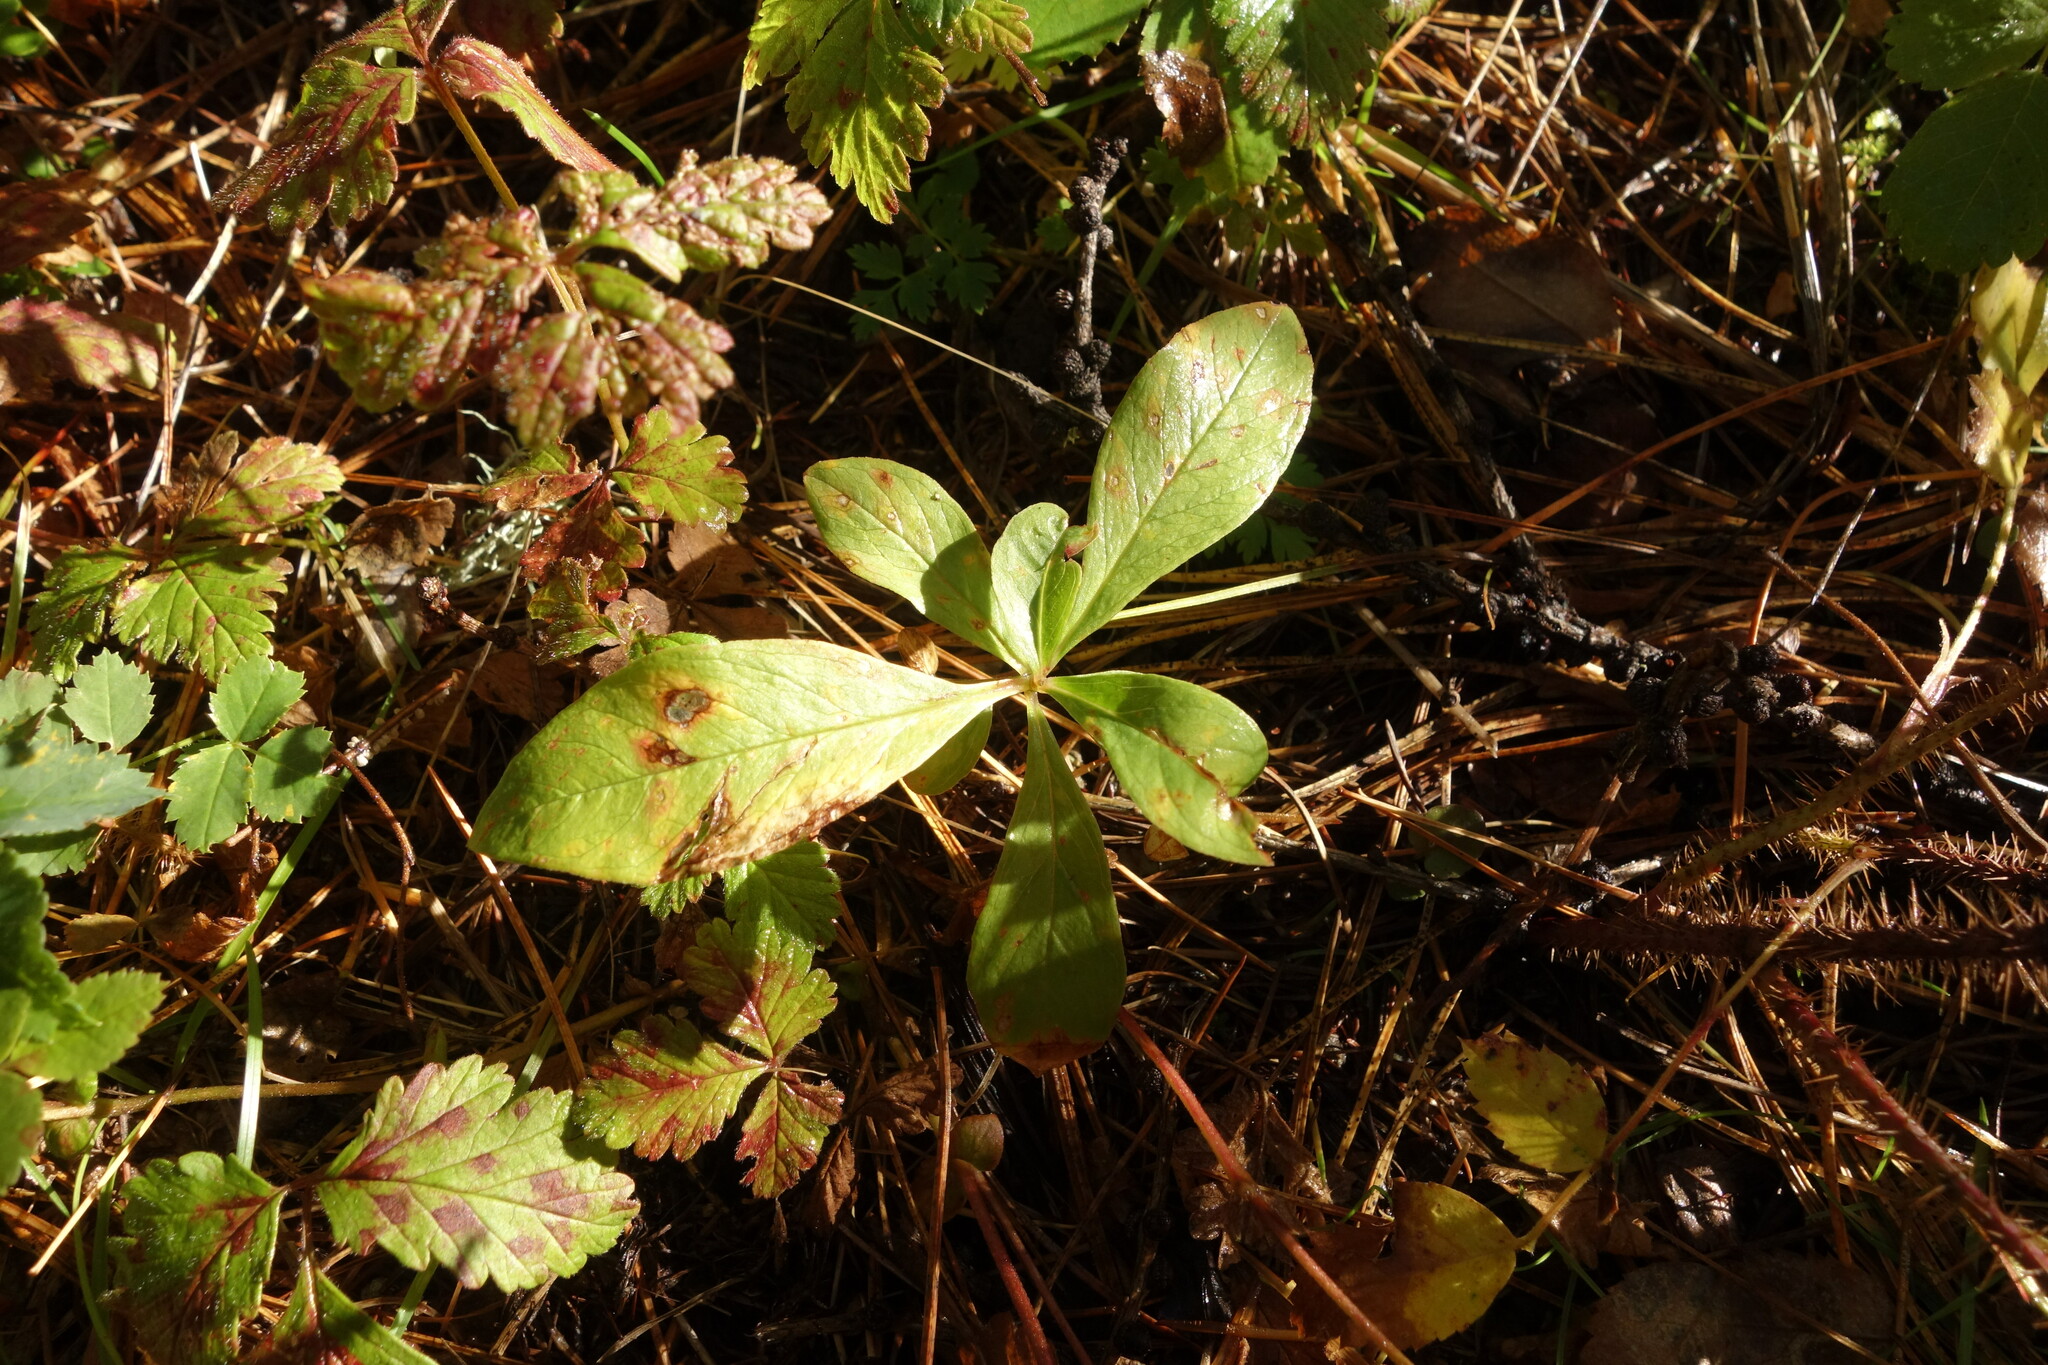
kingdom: Plantae
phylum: Tracheophyta
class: Magnoliopsida
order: Ericales
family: Primulaceae
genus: Lysimachia
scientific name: Lysimachia europaea
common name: Arctic starflower
